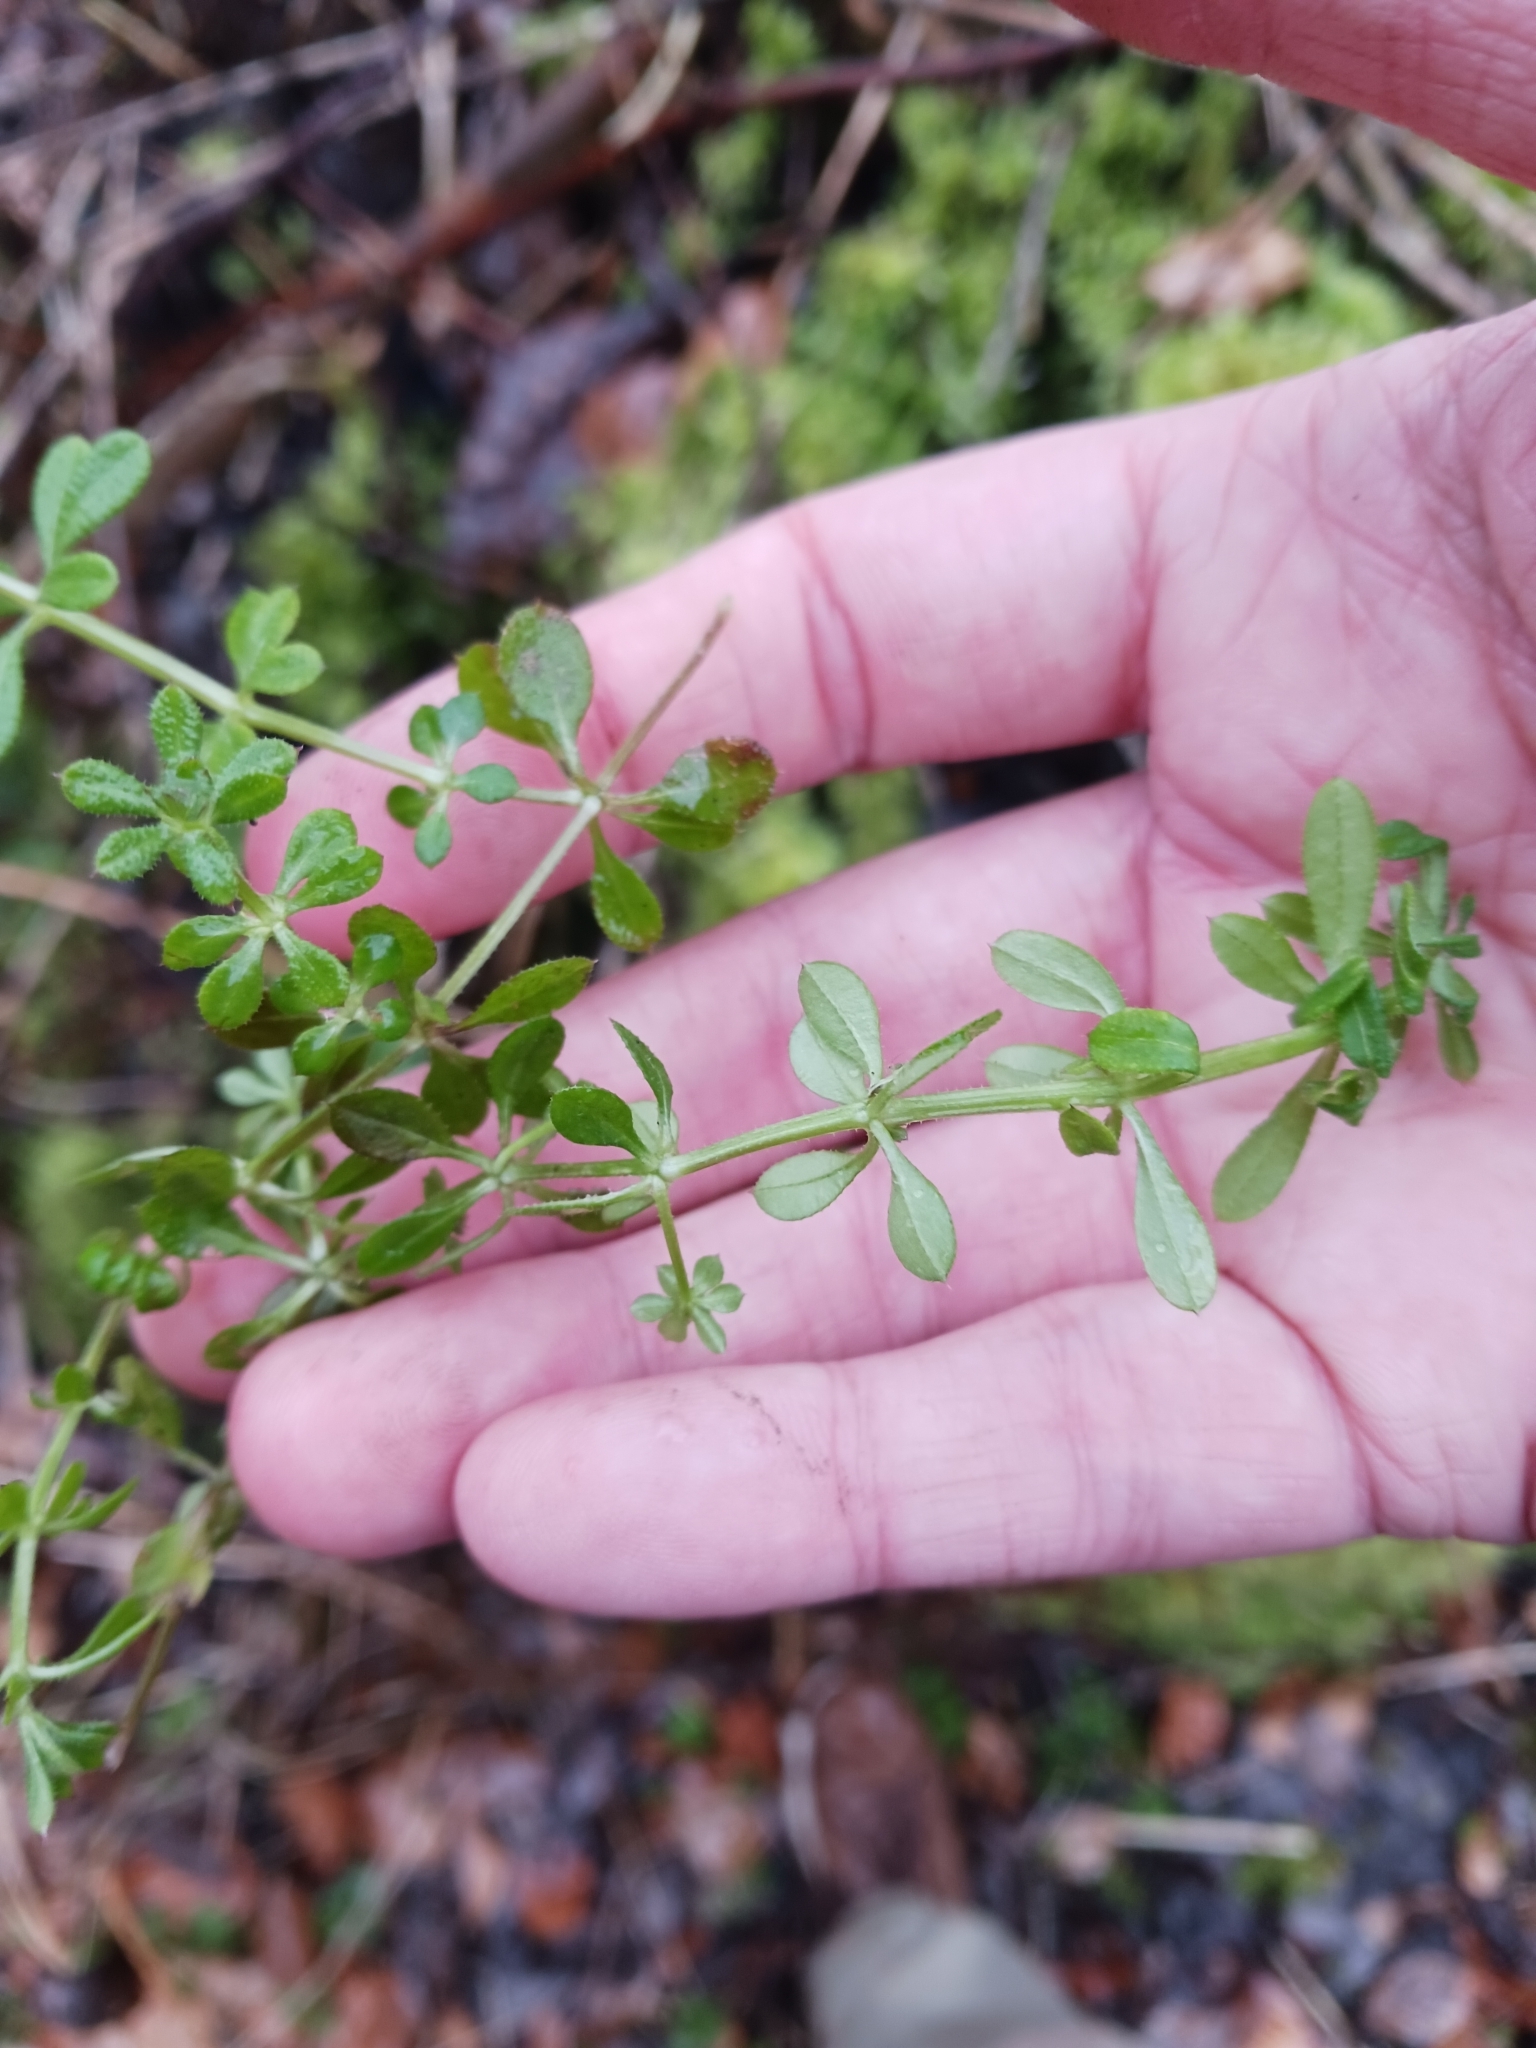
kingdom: Plantae
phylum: Tracheophyta
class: Magnoliopsida
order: Gentianales
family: Rubiaceae
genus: Galium
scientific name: Galium aparine
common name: Cleavers
